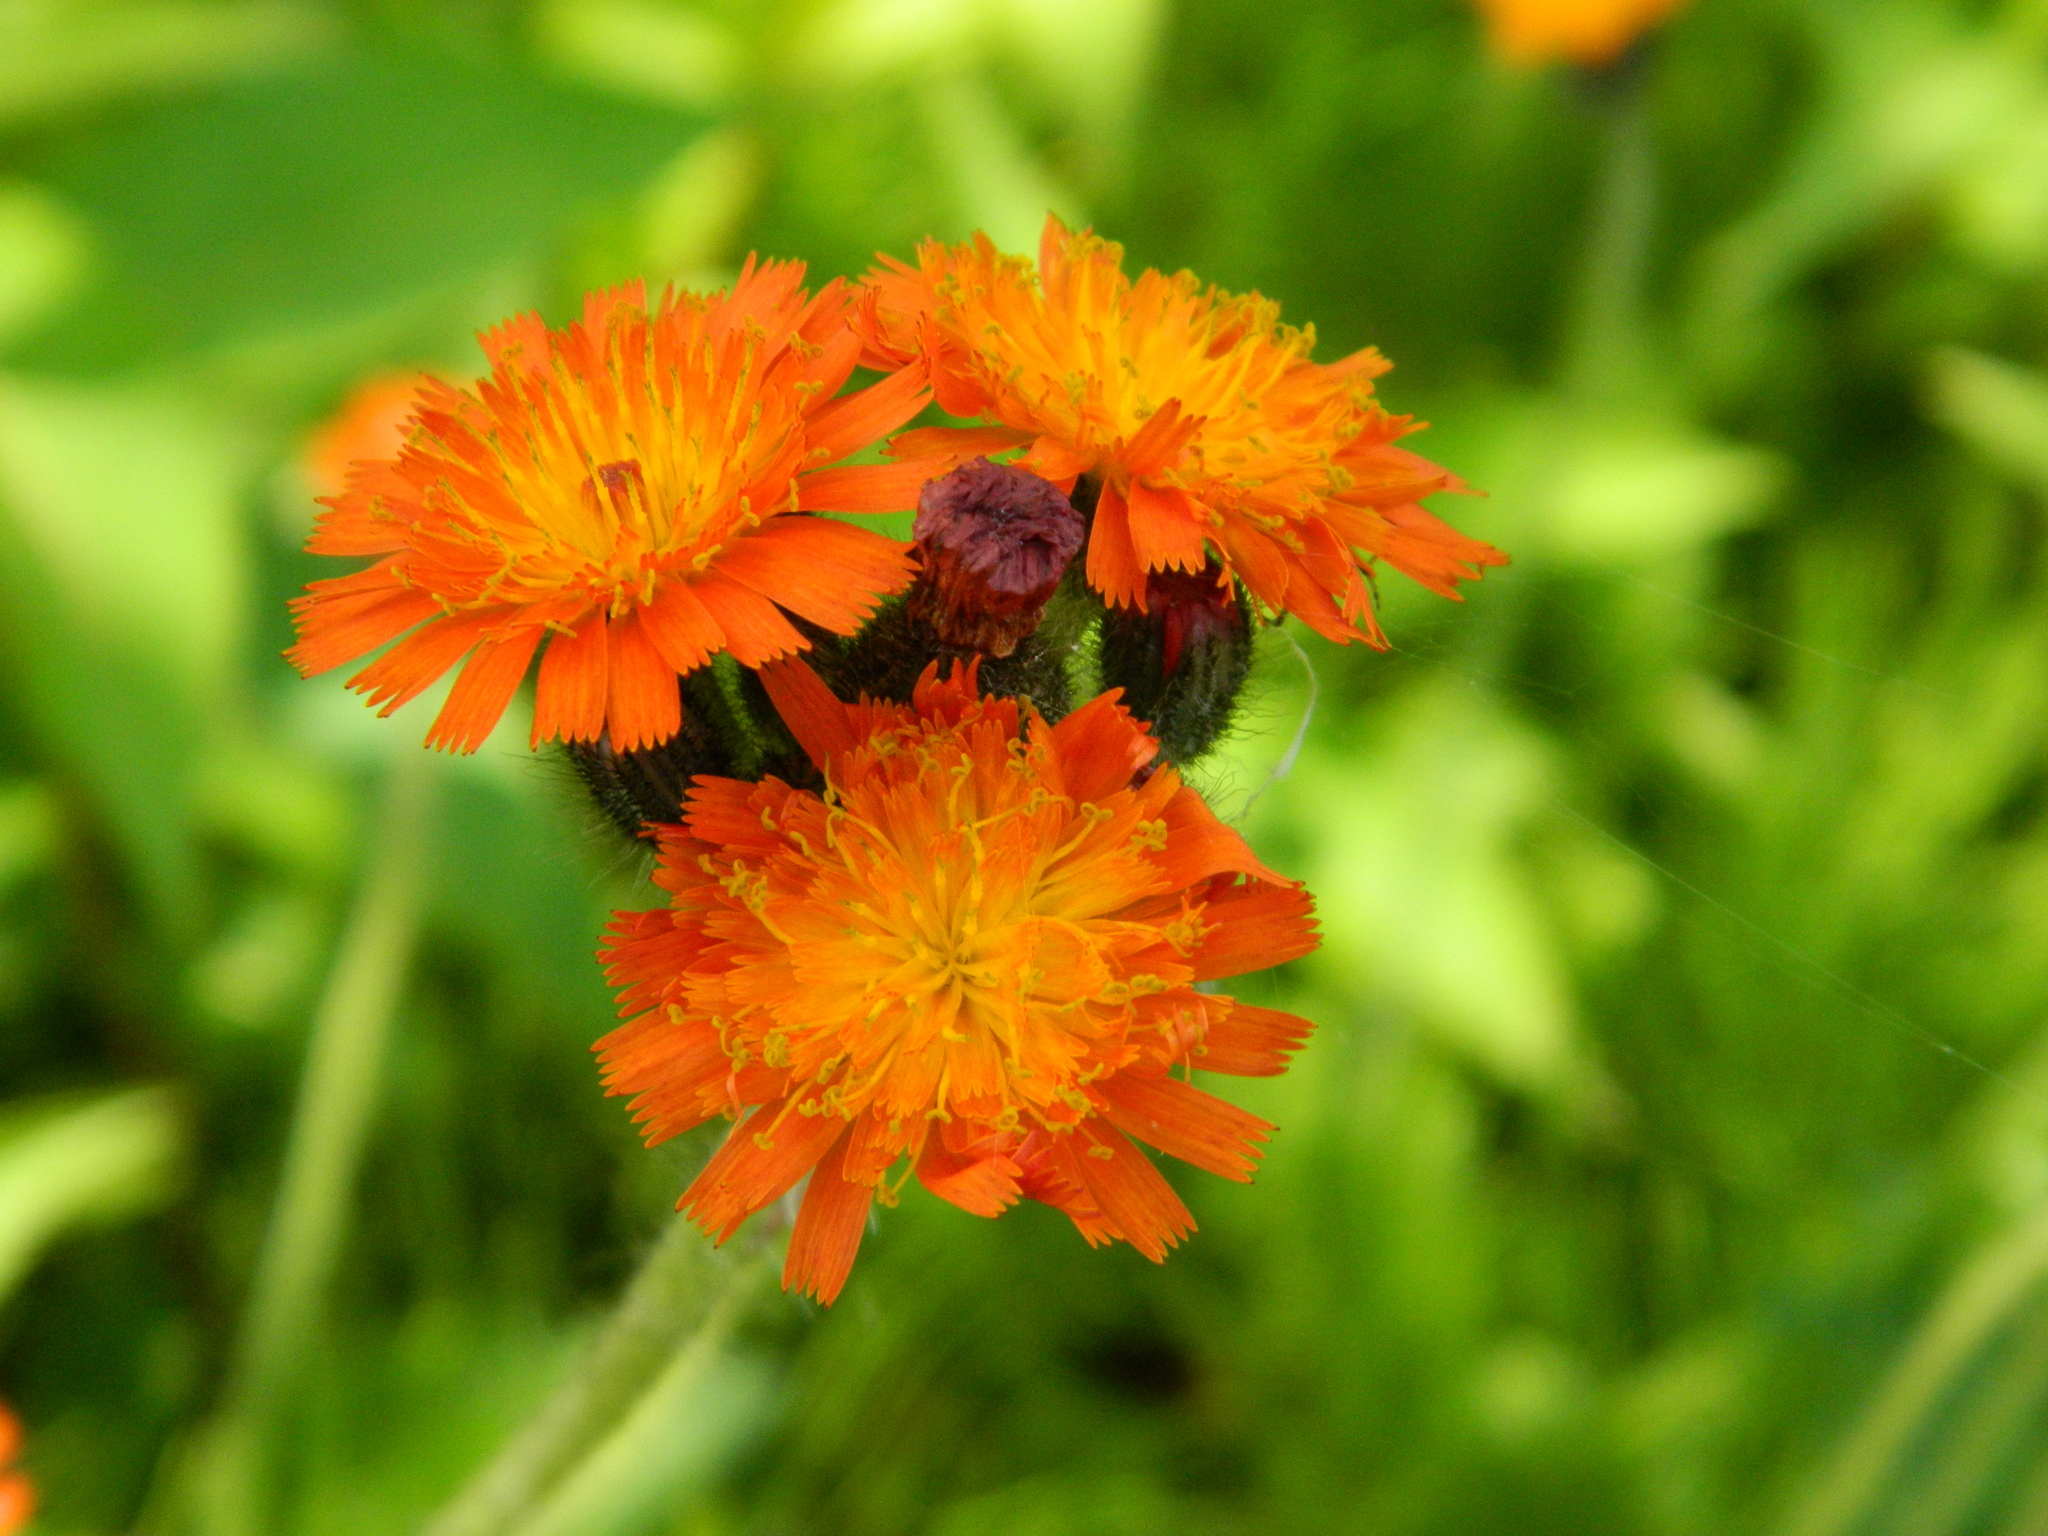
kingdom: Plantae
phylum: Tracheophyta
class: Magnoliopsida
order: Asterales
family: Asteraceae
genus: Pilosella
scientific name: Pilosella aurantiaca
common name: Fox-and-cubs
